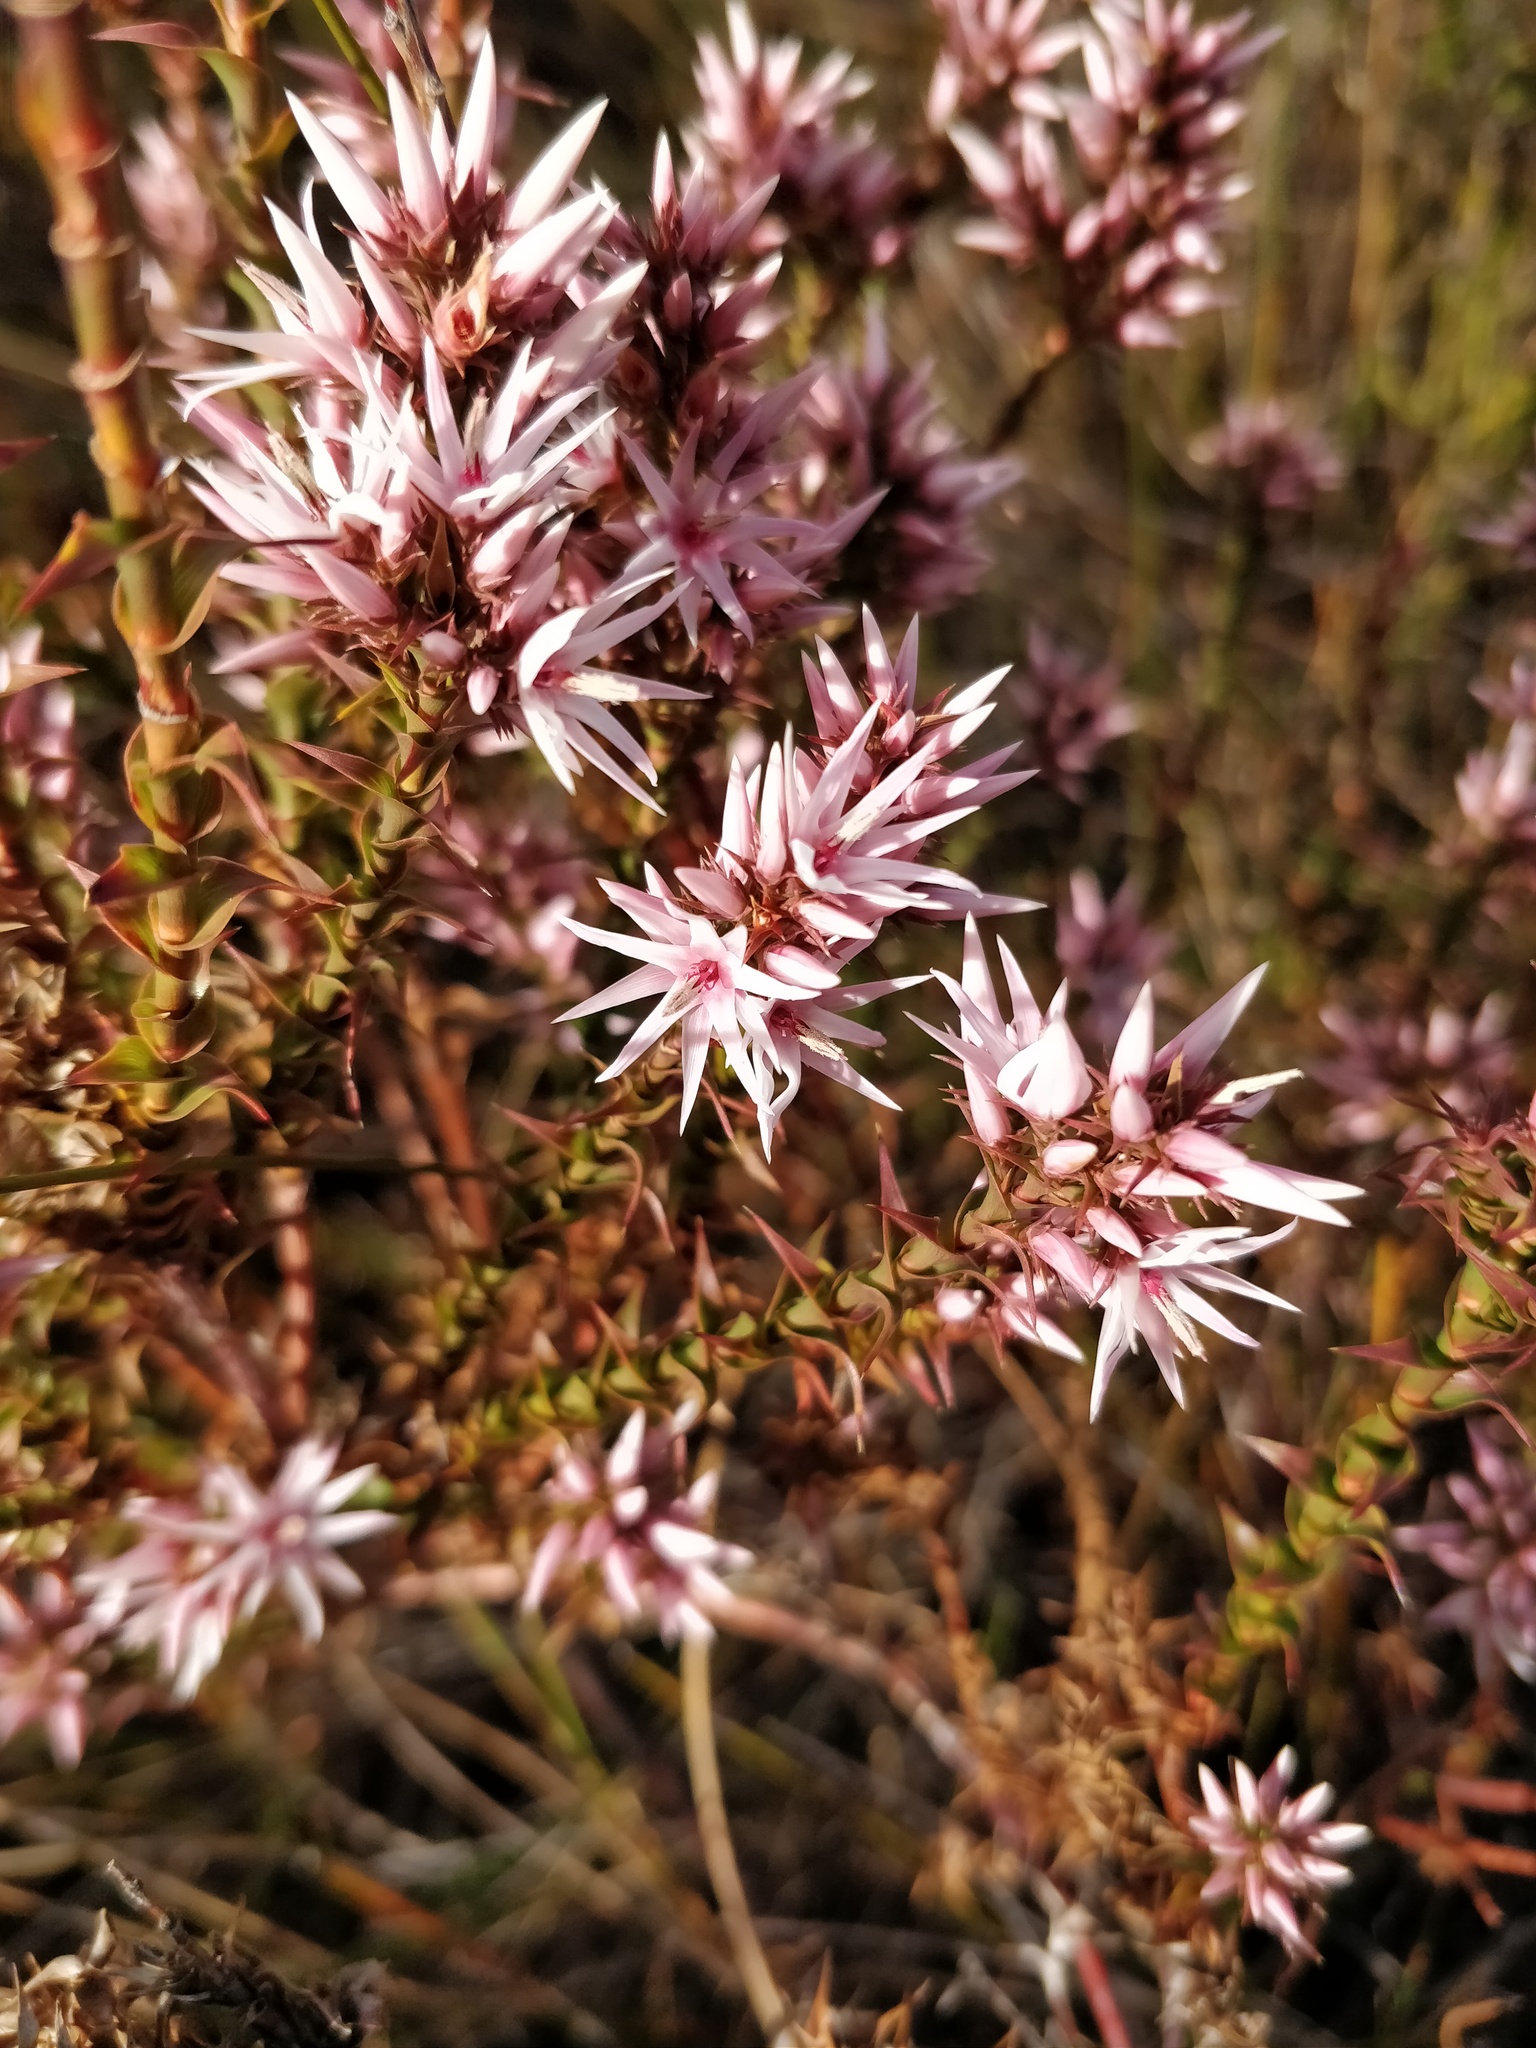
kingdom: Plantae
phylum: Tracheophyta
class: Magnoliopsida
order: Ericales
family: Ericaceae
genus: Sprengelia
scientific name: Sprengelia incarnata
